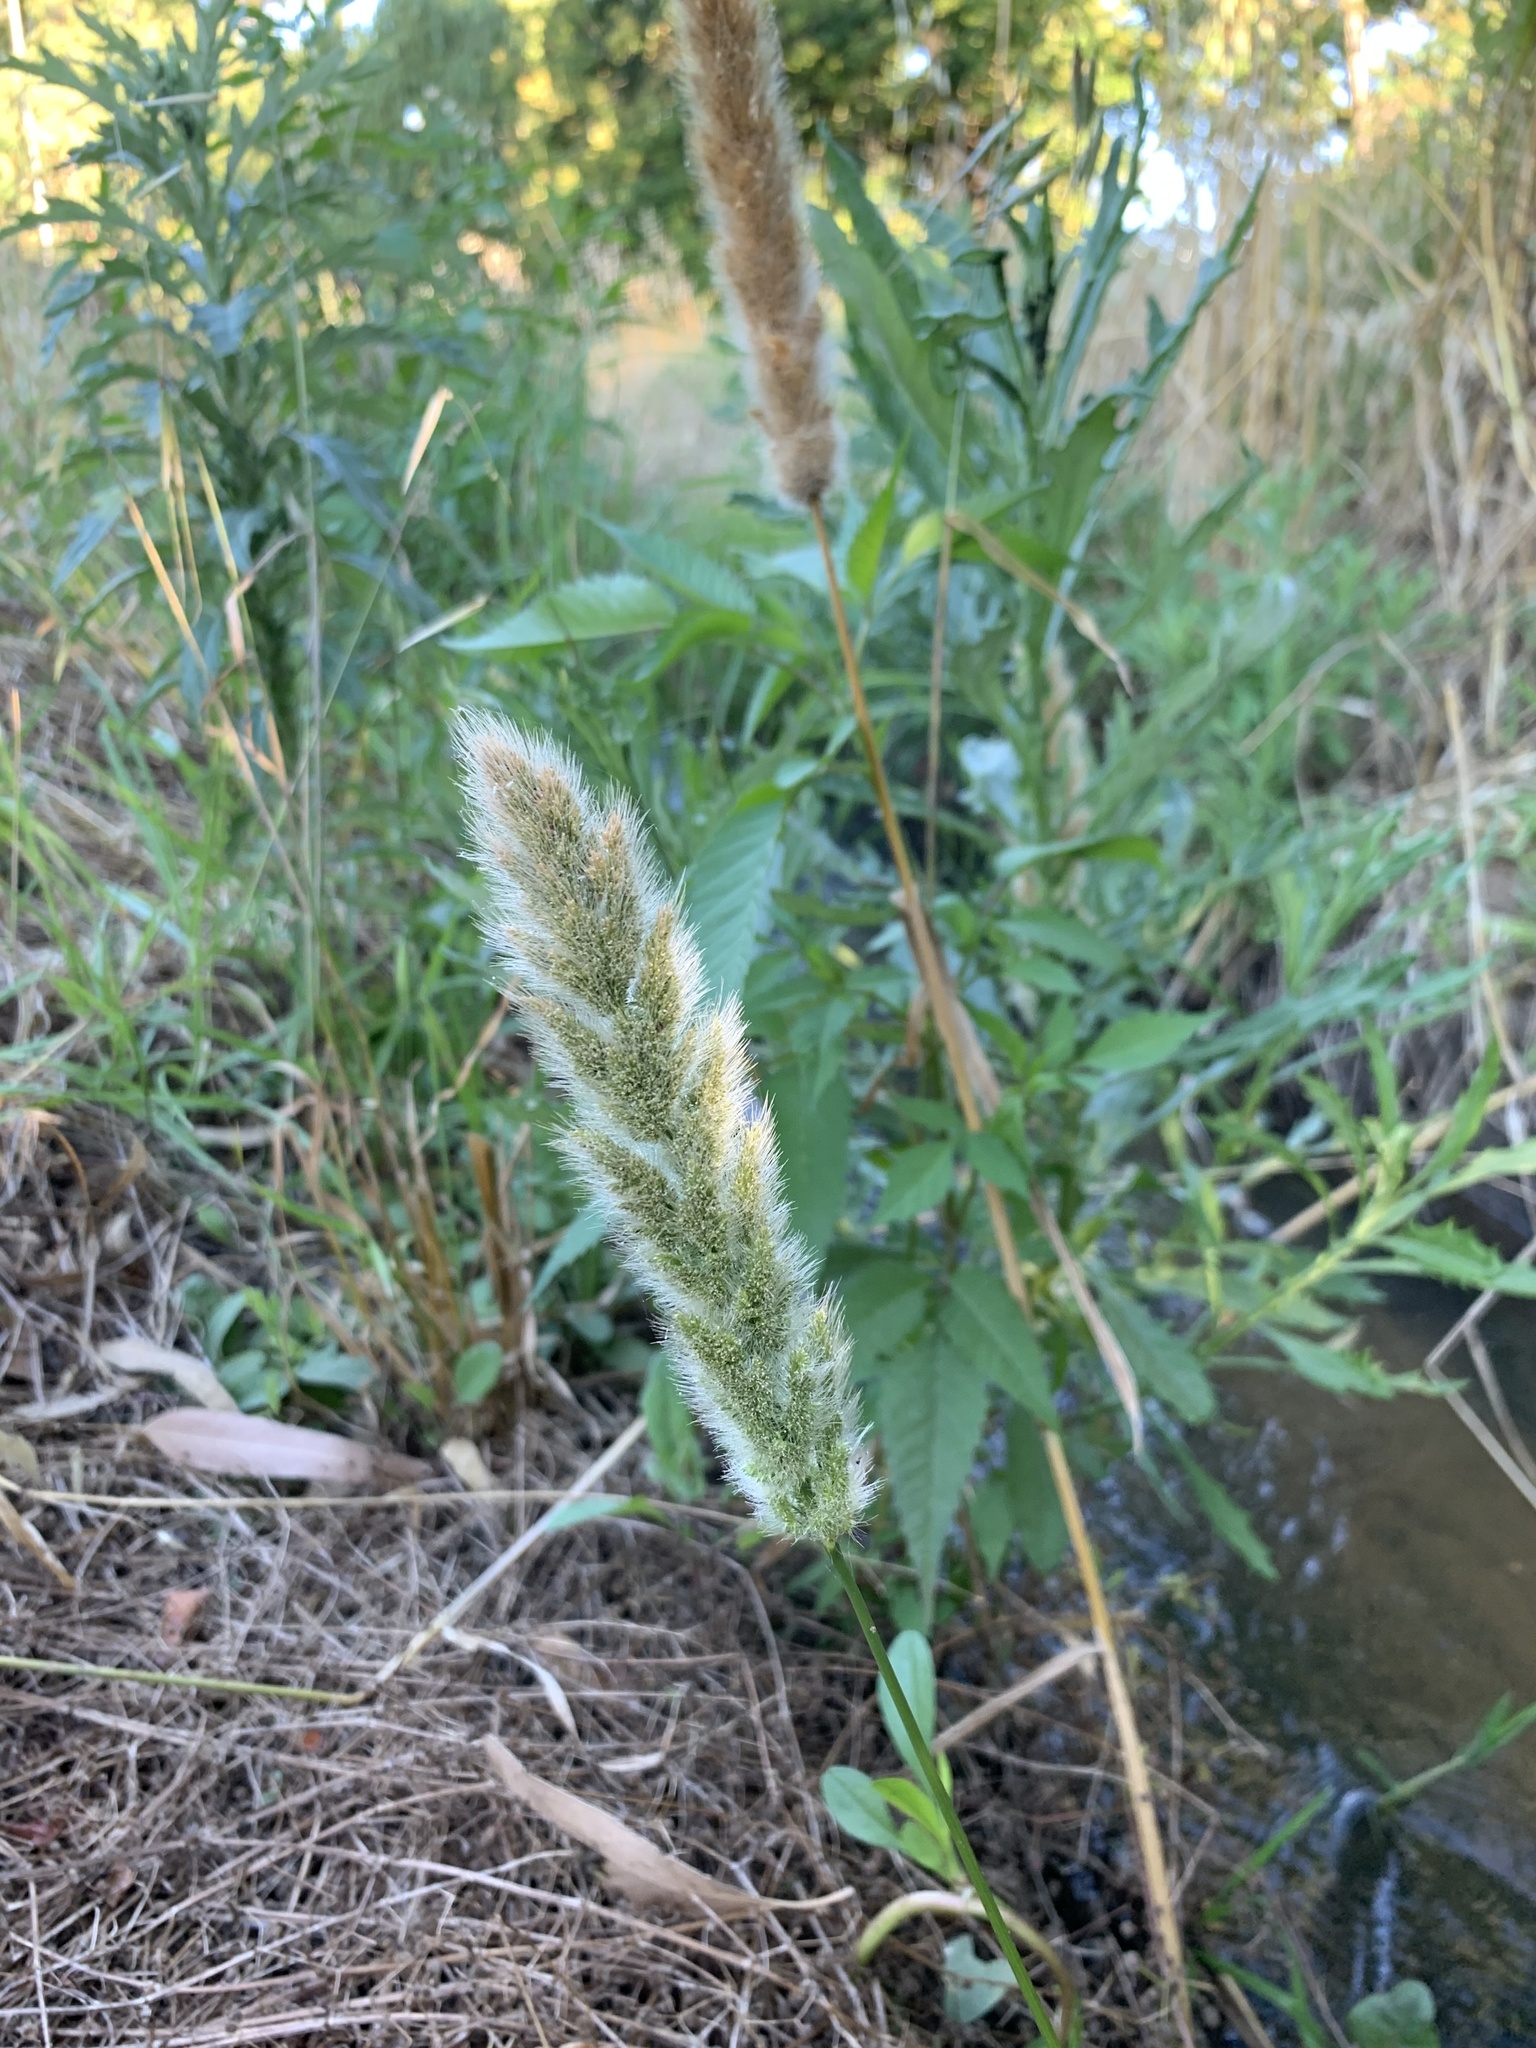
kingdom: Plantae
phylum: Tracheophyta
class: Liliopsida
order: Poales
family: Poaceae
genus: Polypogon
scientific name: Polypogon monspeliensis
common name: Annual rabbitsfoot grass
